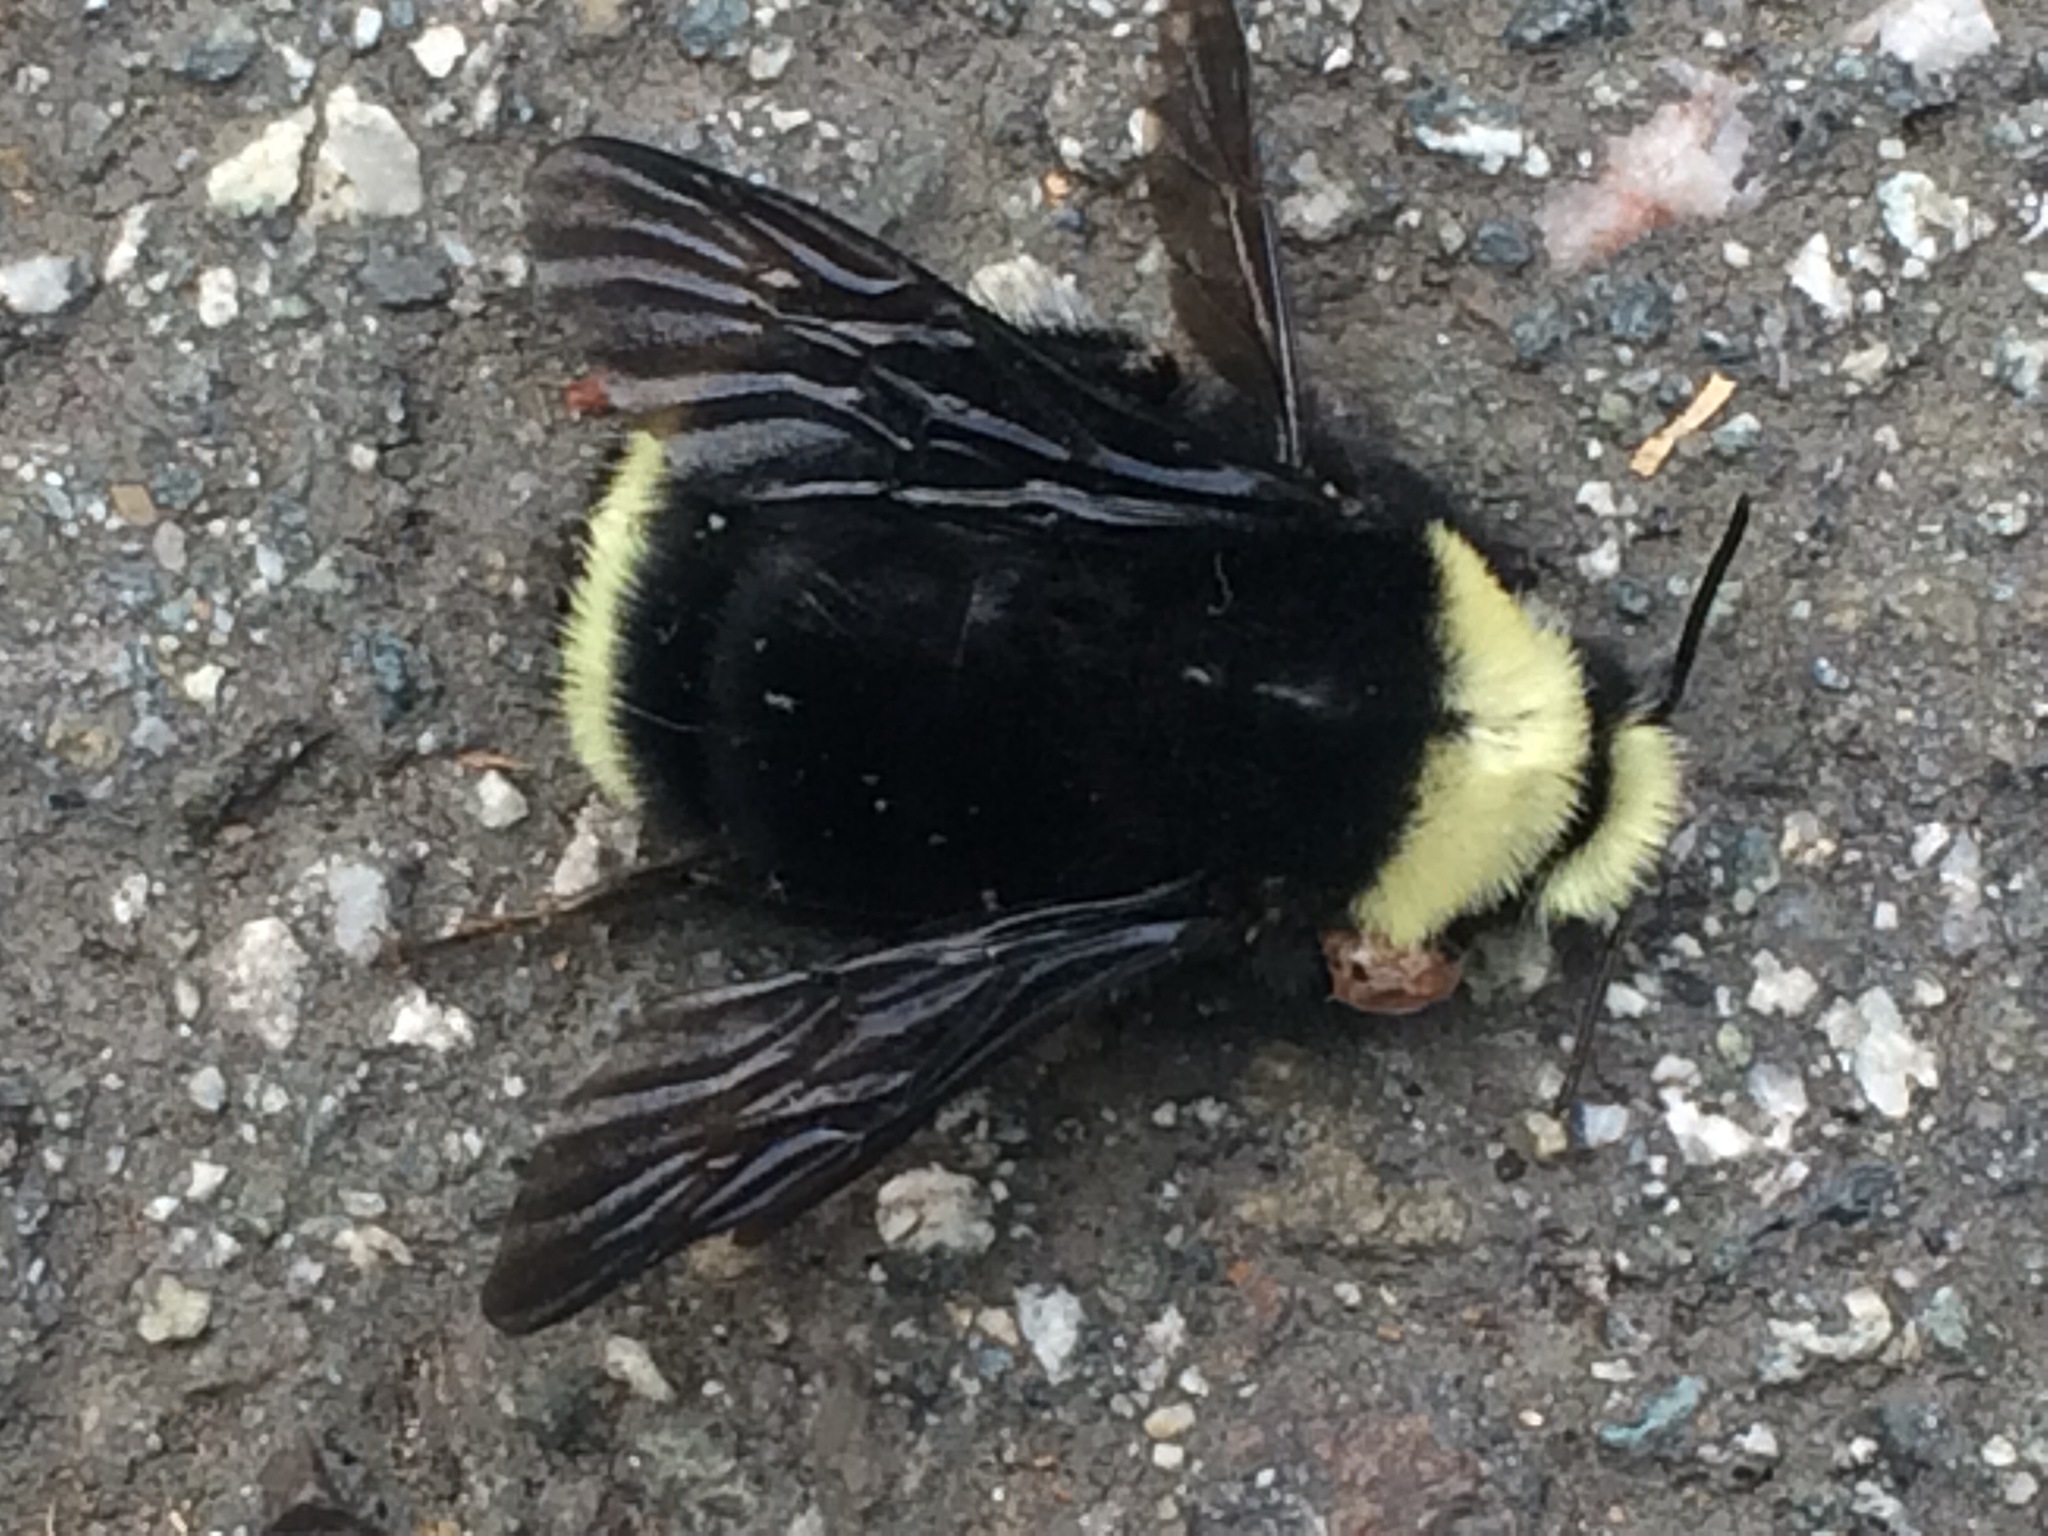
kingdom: Animalia
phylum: Arthropoda
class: Insecta
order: Hymenoptera
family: Apidae
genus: Pyrobombus
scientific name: Pyrobombus
